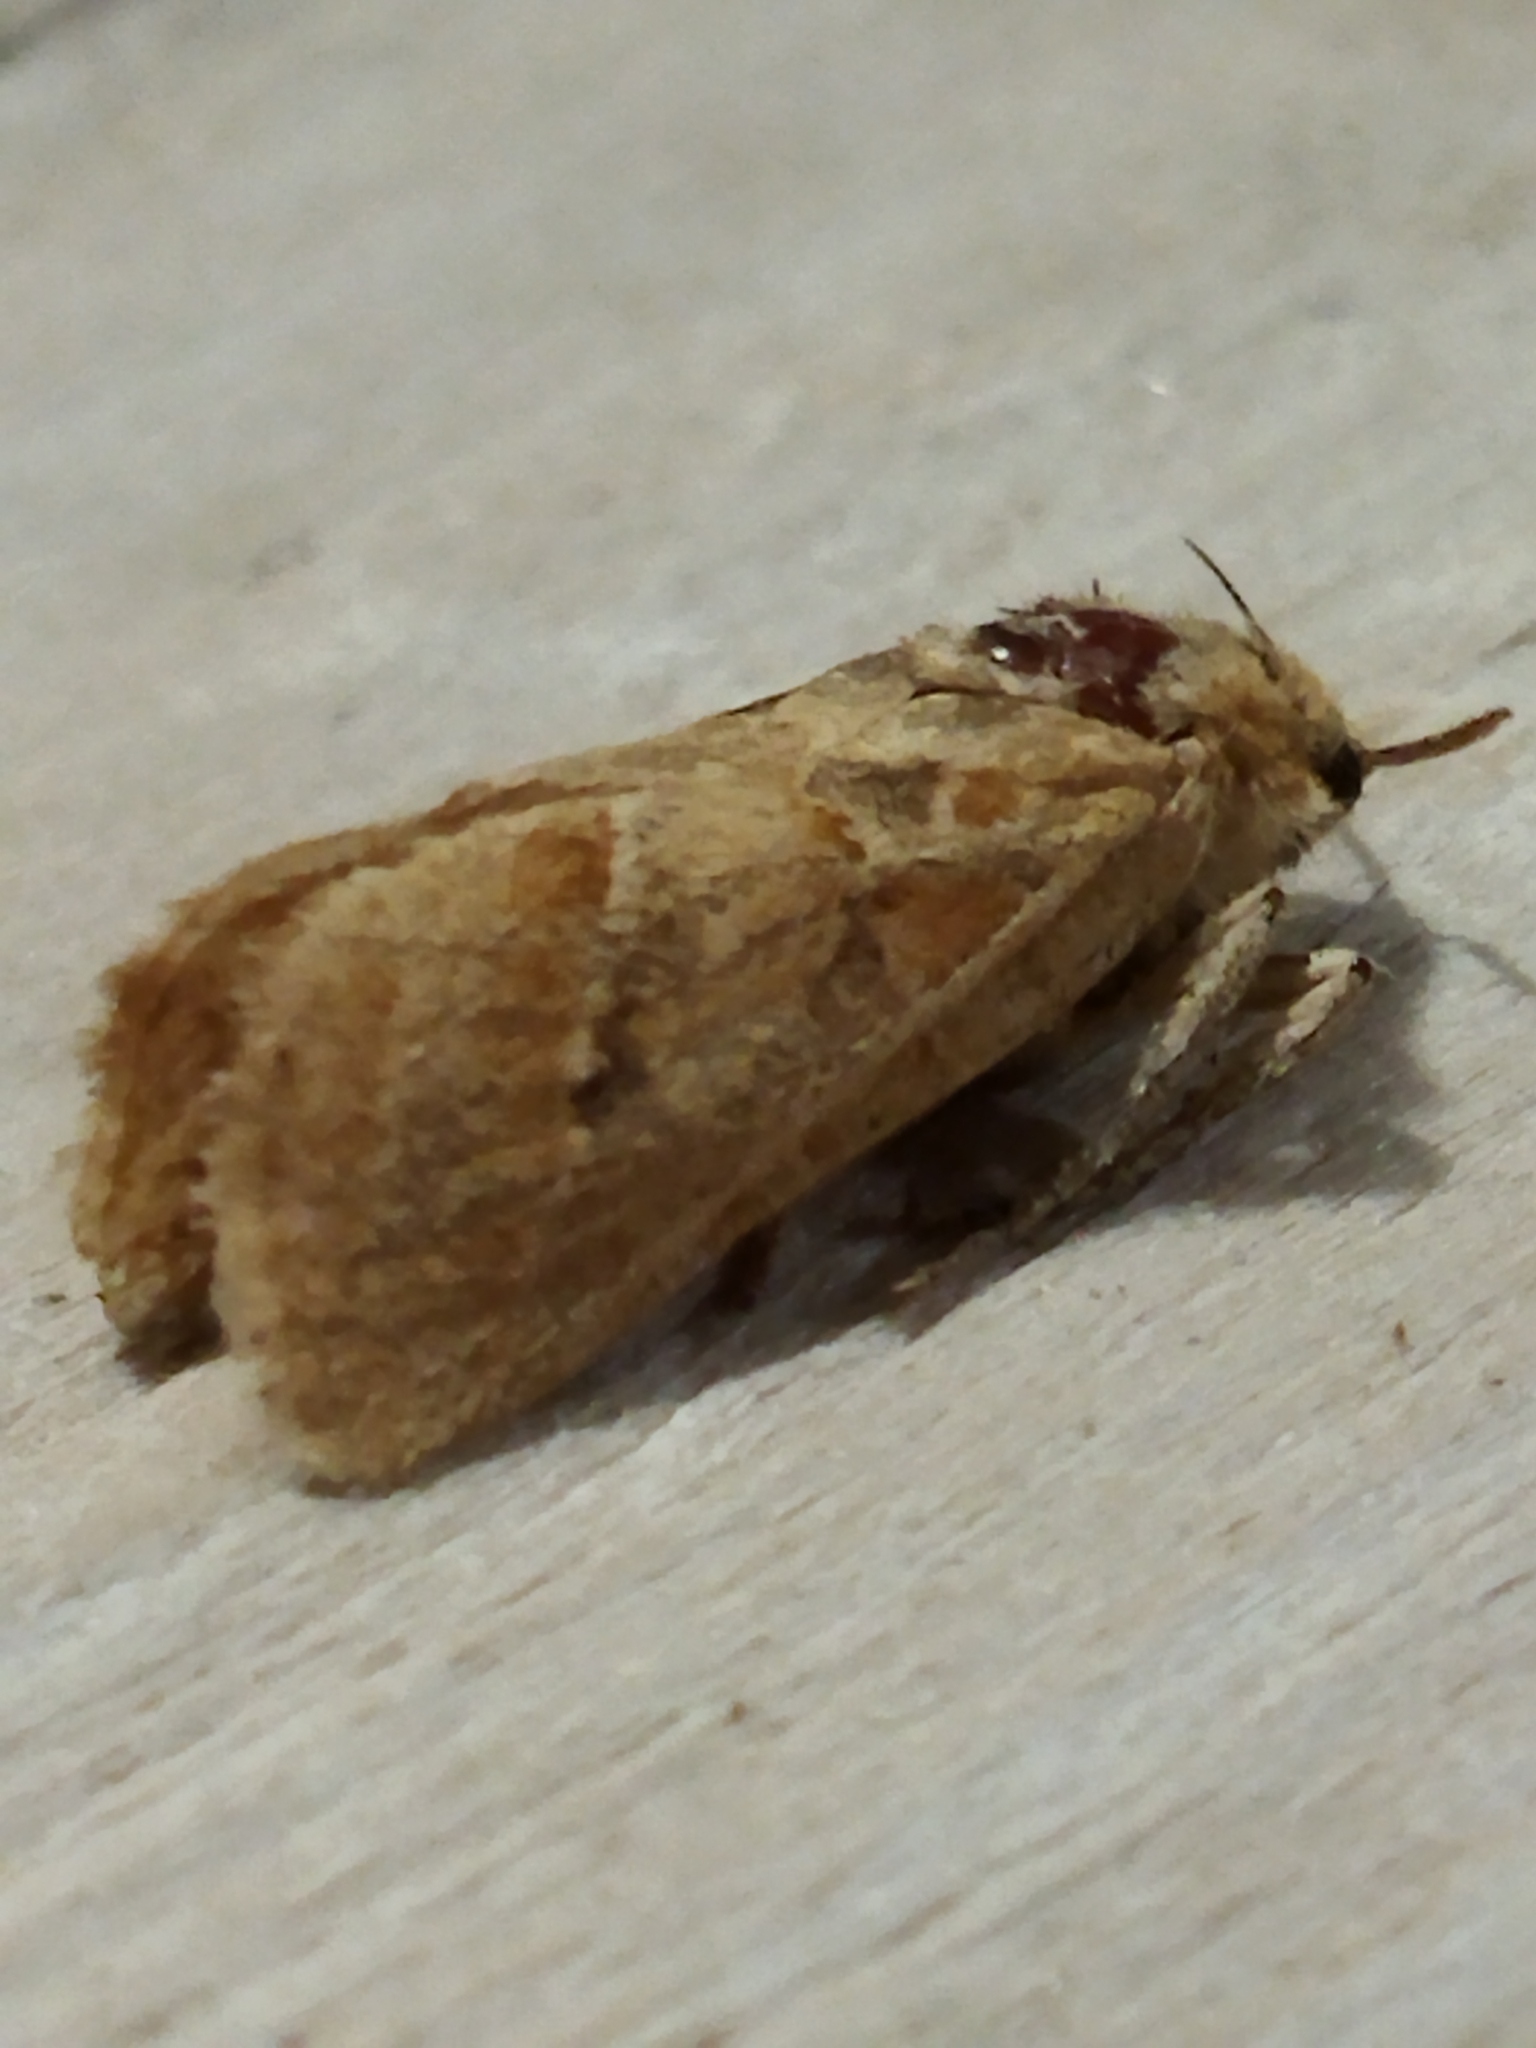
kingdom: Animalia
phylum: Arthropoda
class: Insecta
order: Lepidoptera
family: Hepialidae
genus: Triodia
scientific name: Triodia amasinus
